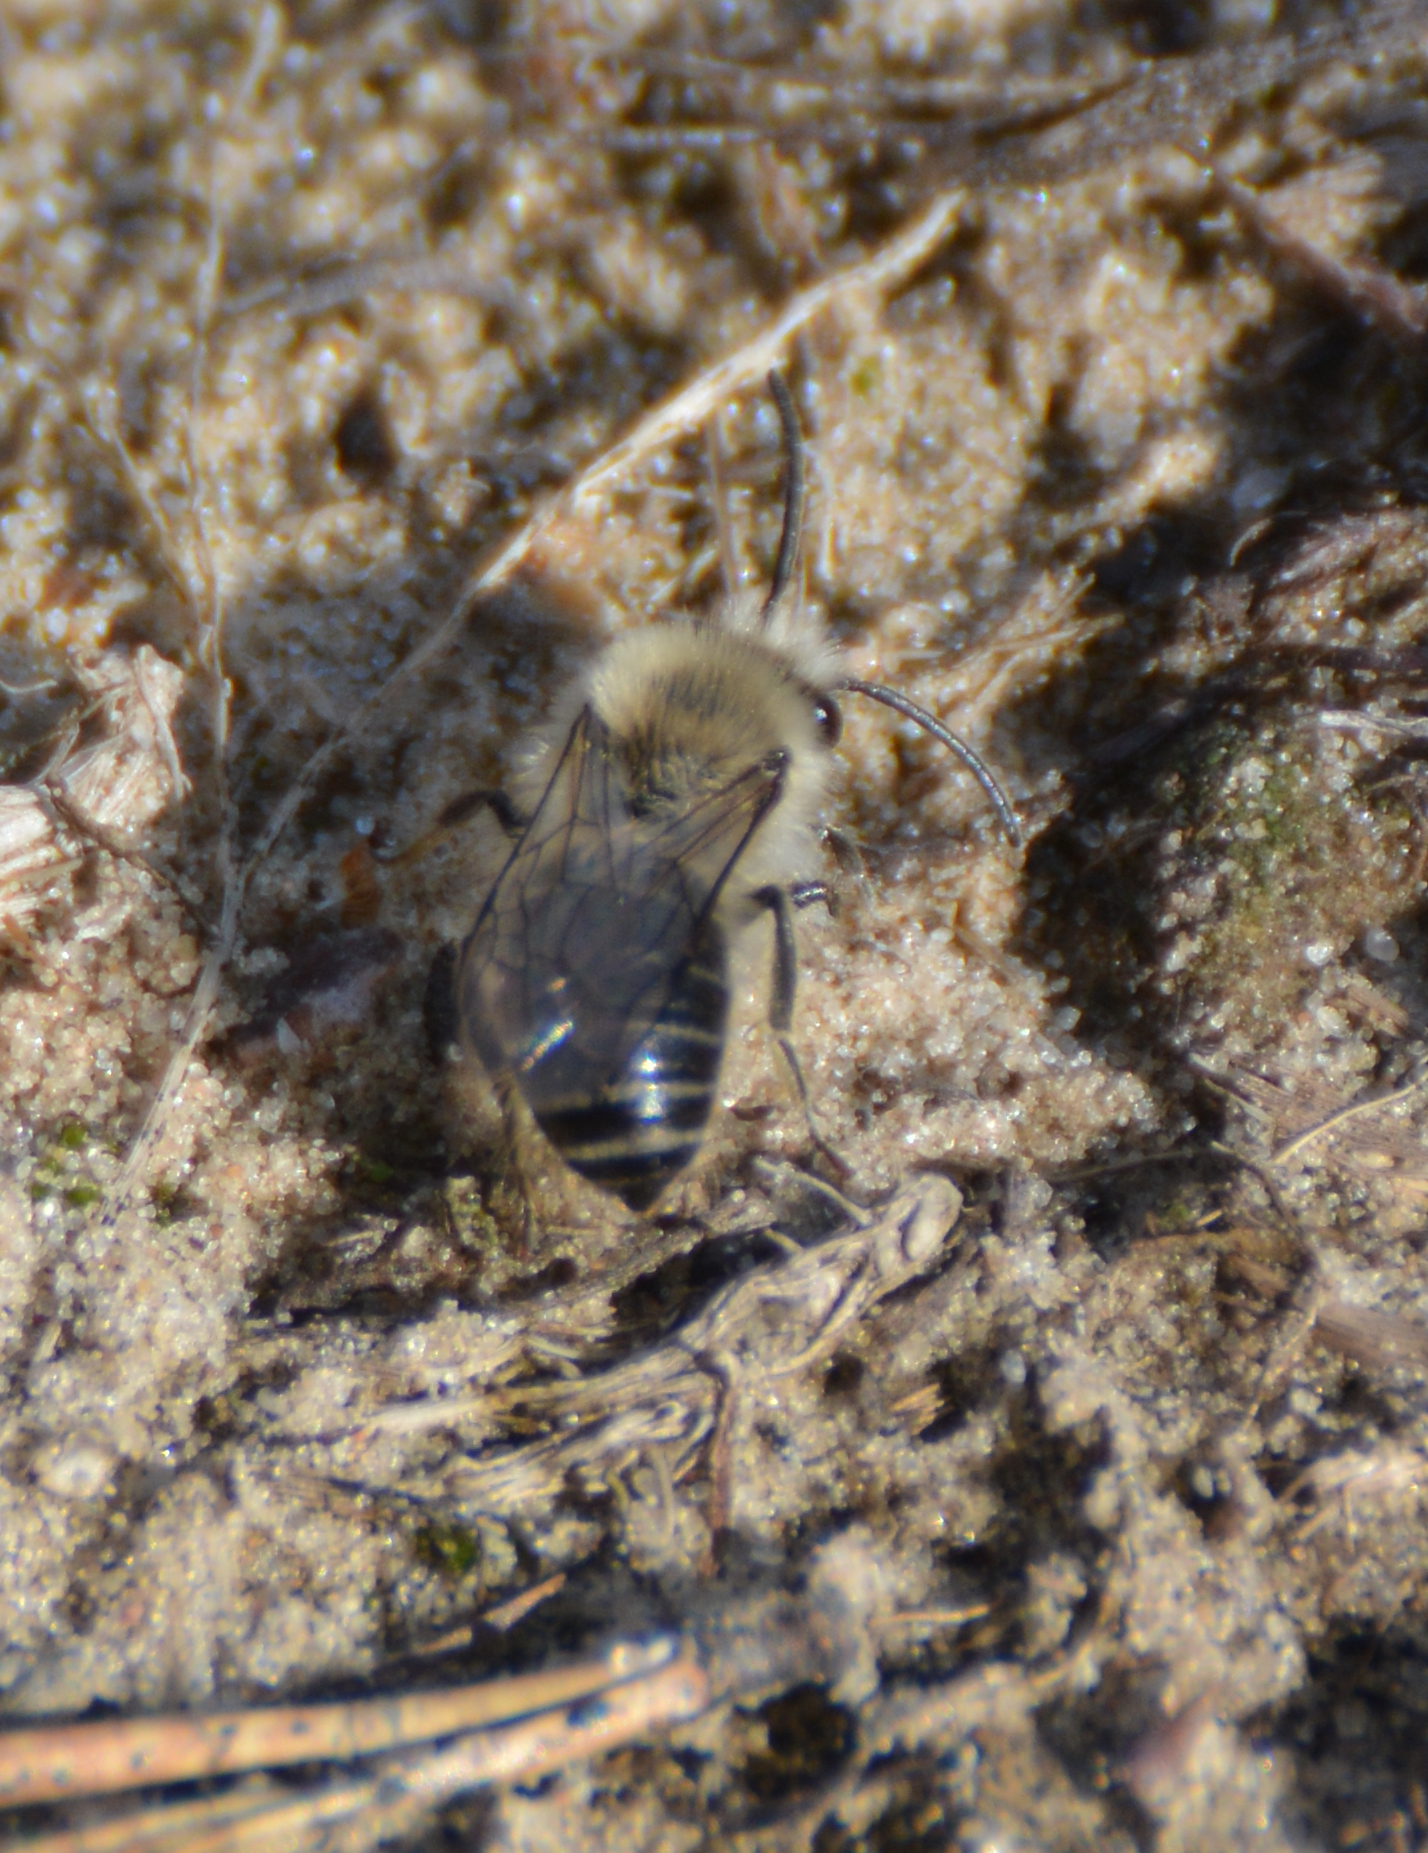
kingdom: Animalia
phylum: Arthropoda
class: Insecta
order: Hymenoptera
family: Colletidae
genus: Colletes
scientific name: Colletes cunicularius
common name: Early colletes
